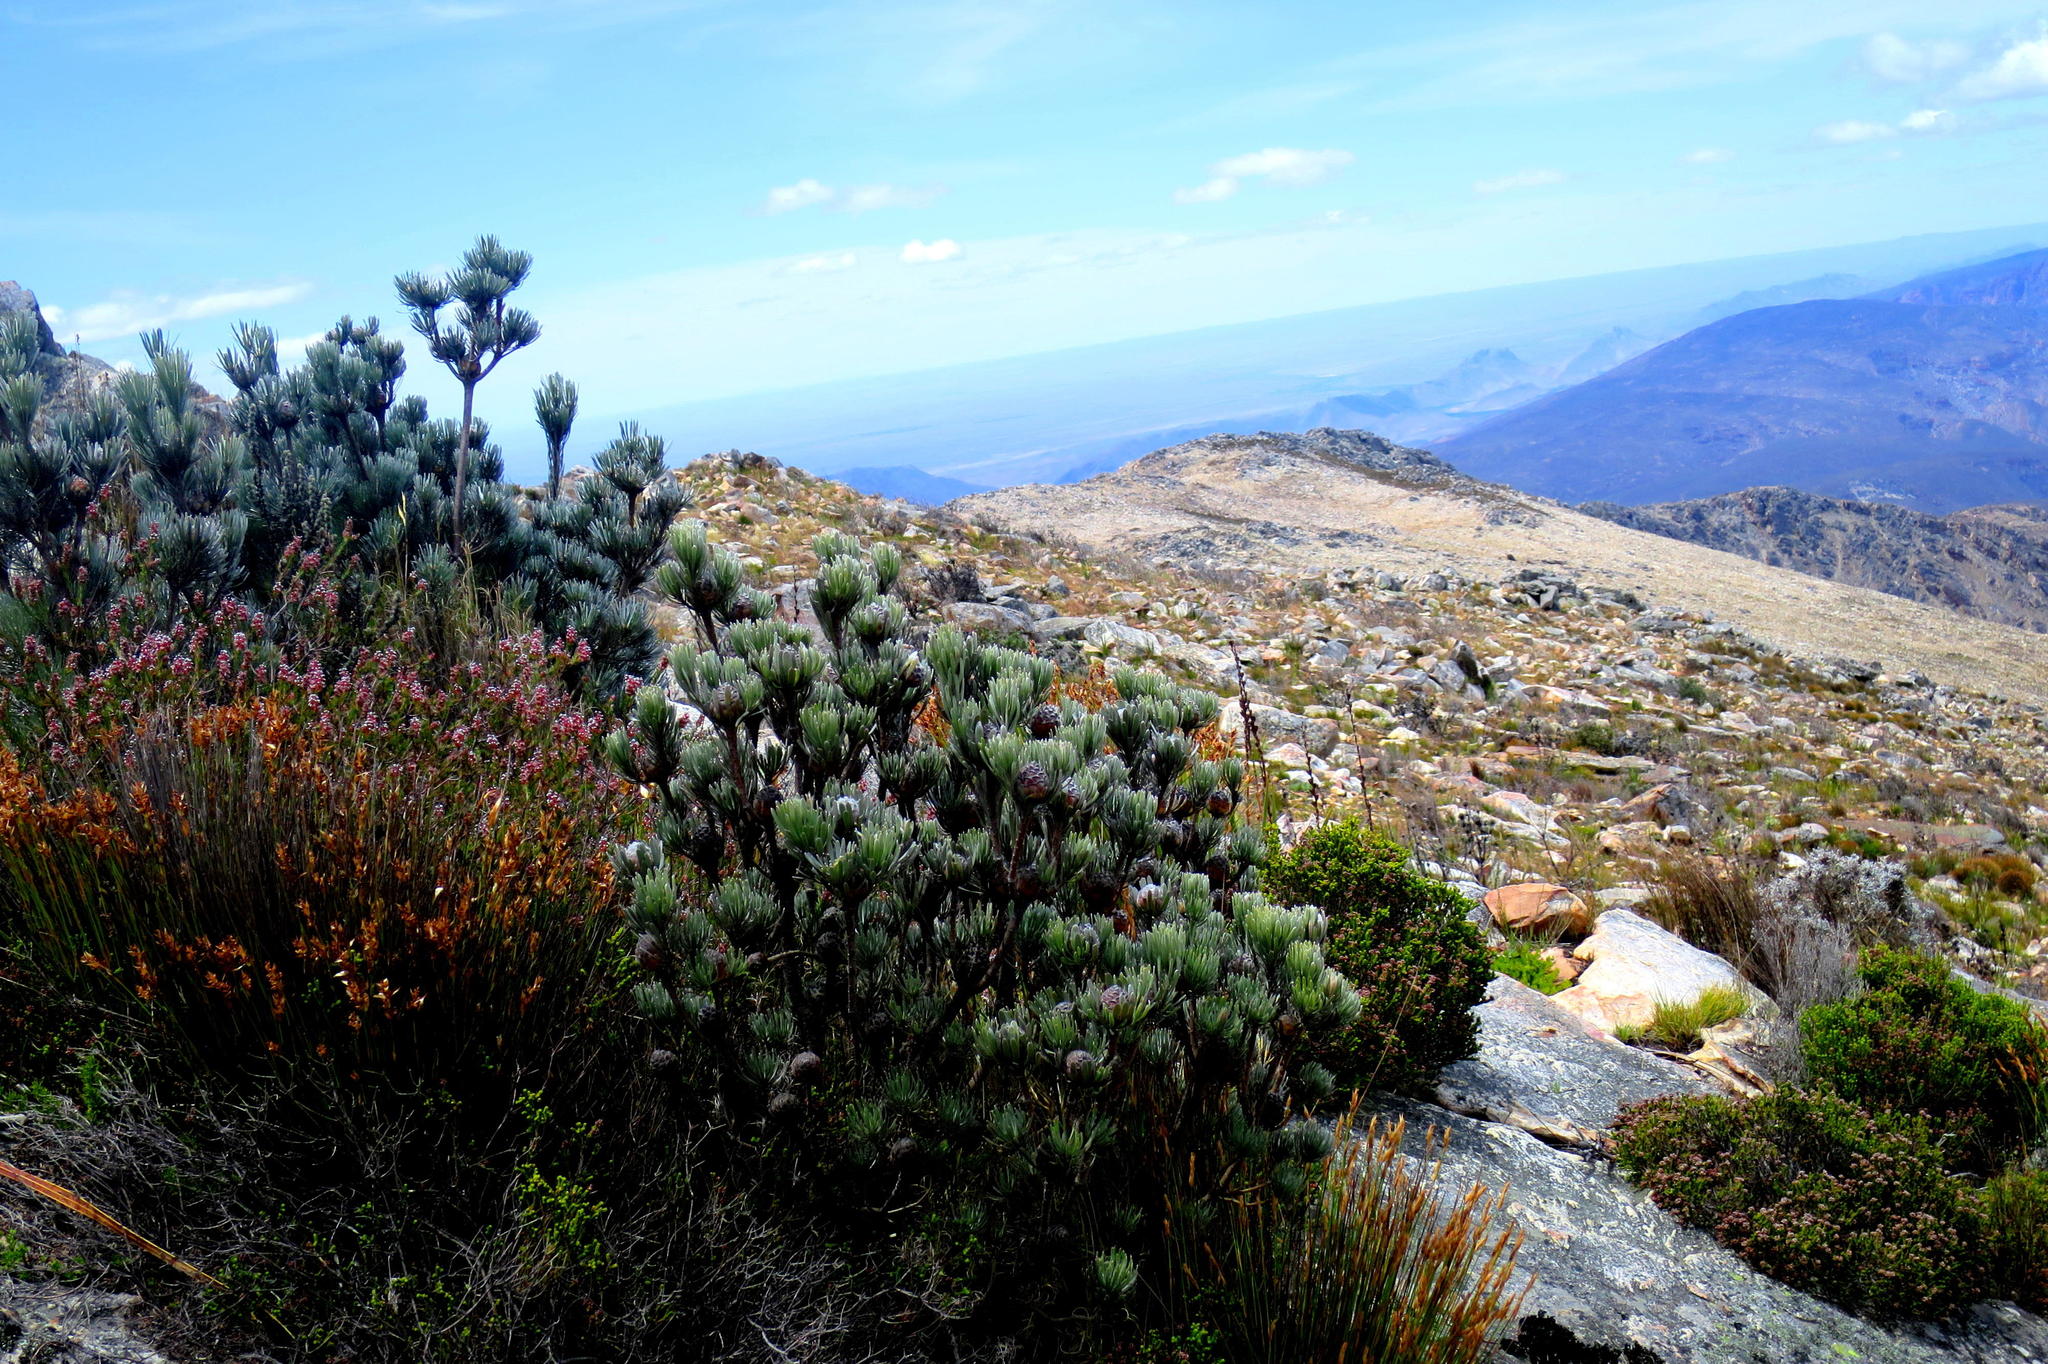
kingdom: Plantae
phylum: Tracheophyta
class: Magnoliopsida
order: Proteales
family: Proteaceae
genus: Leucadendron
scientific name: Leucadendron album
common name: Linear-leaf conebush
